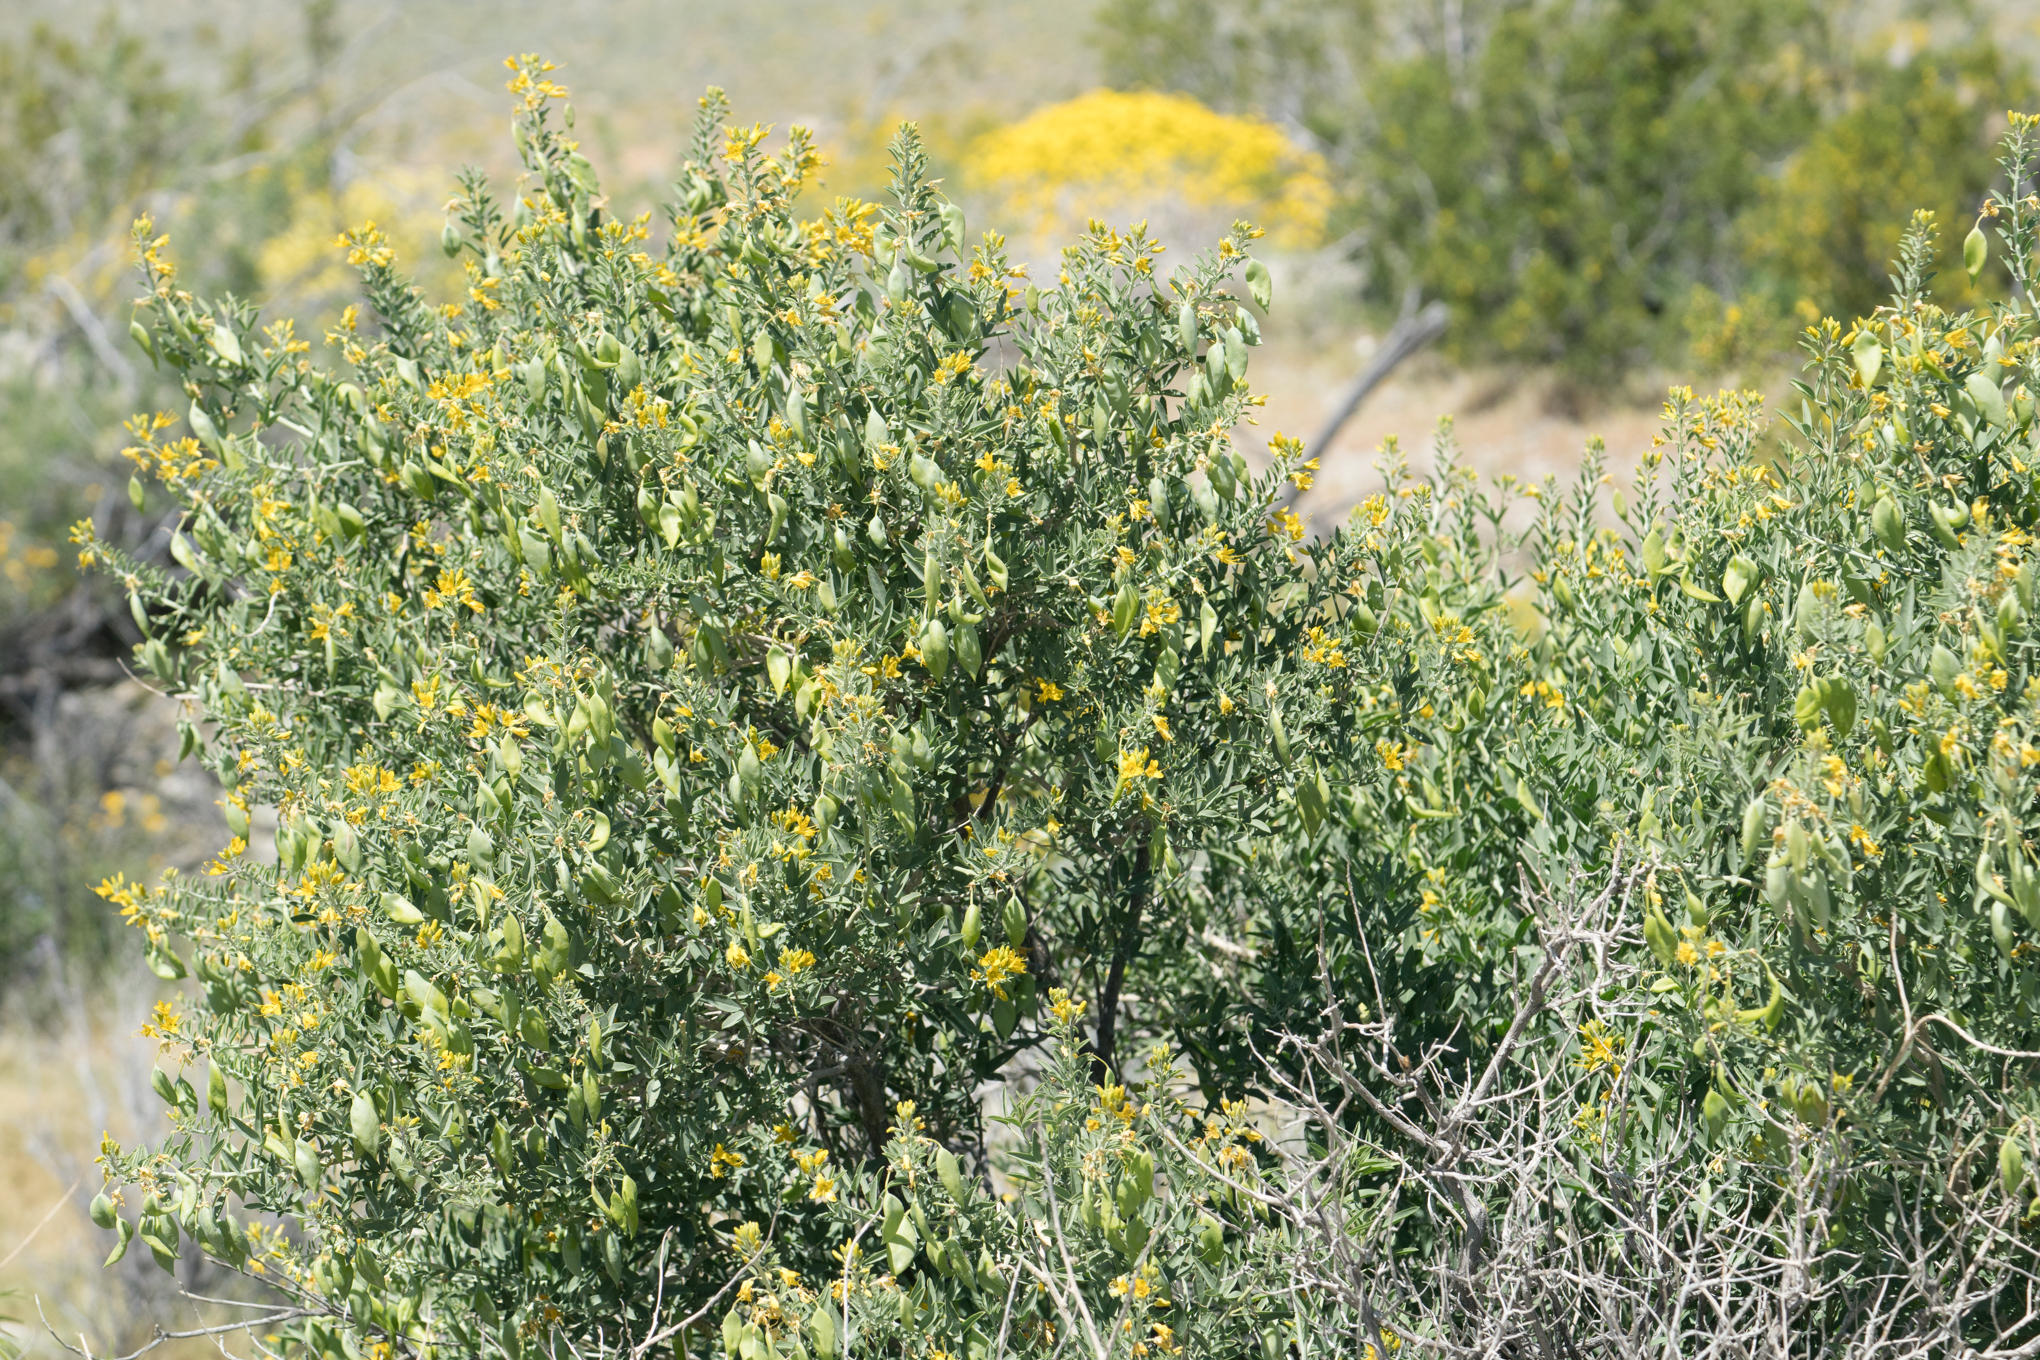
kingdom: Plantae
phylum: Tracheophyta
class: Magnoliopsida
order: Brassicales
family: Cleomaceae
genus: Cleomella
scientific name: Cleomella arborea
